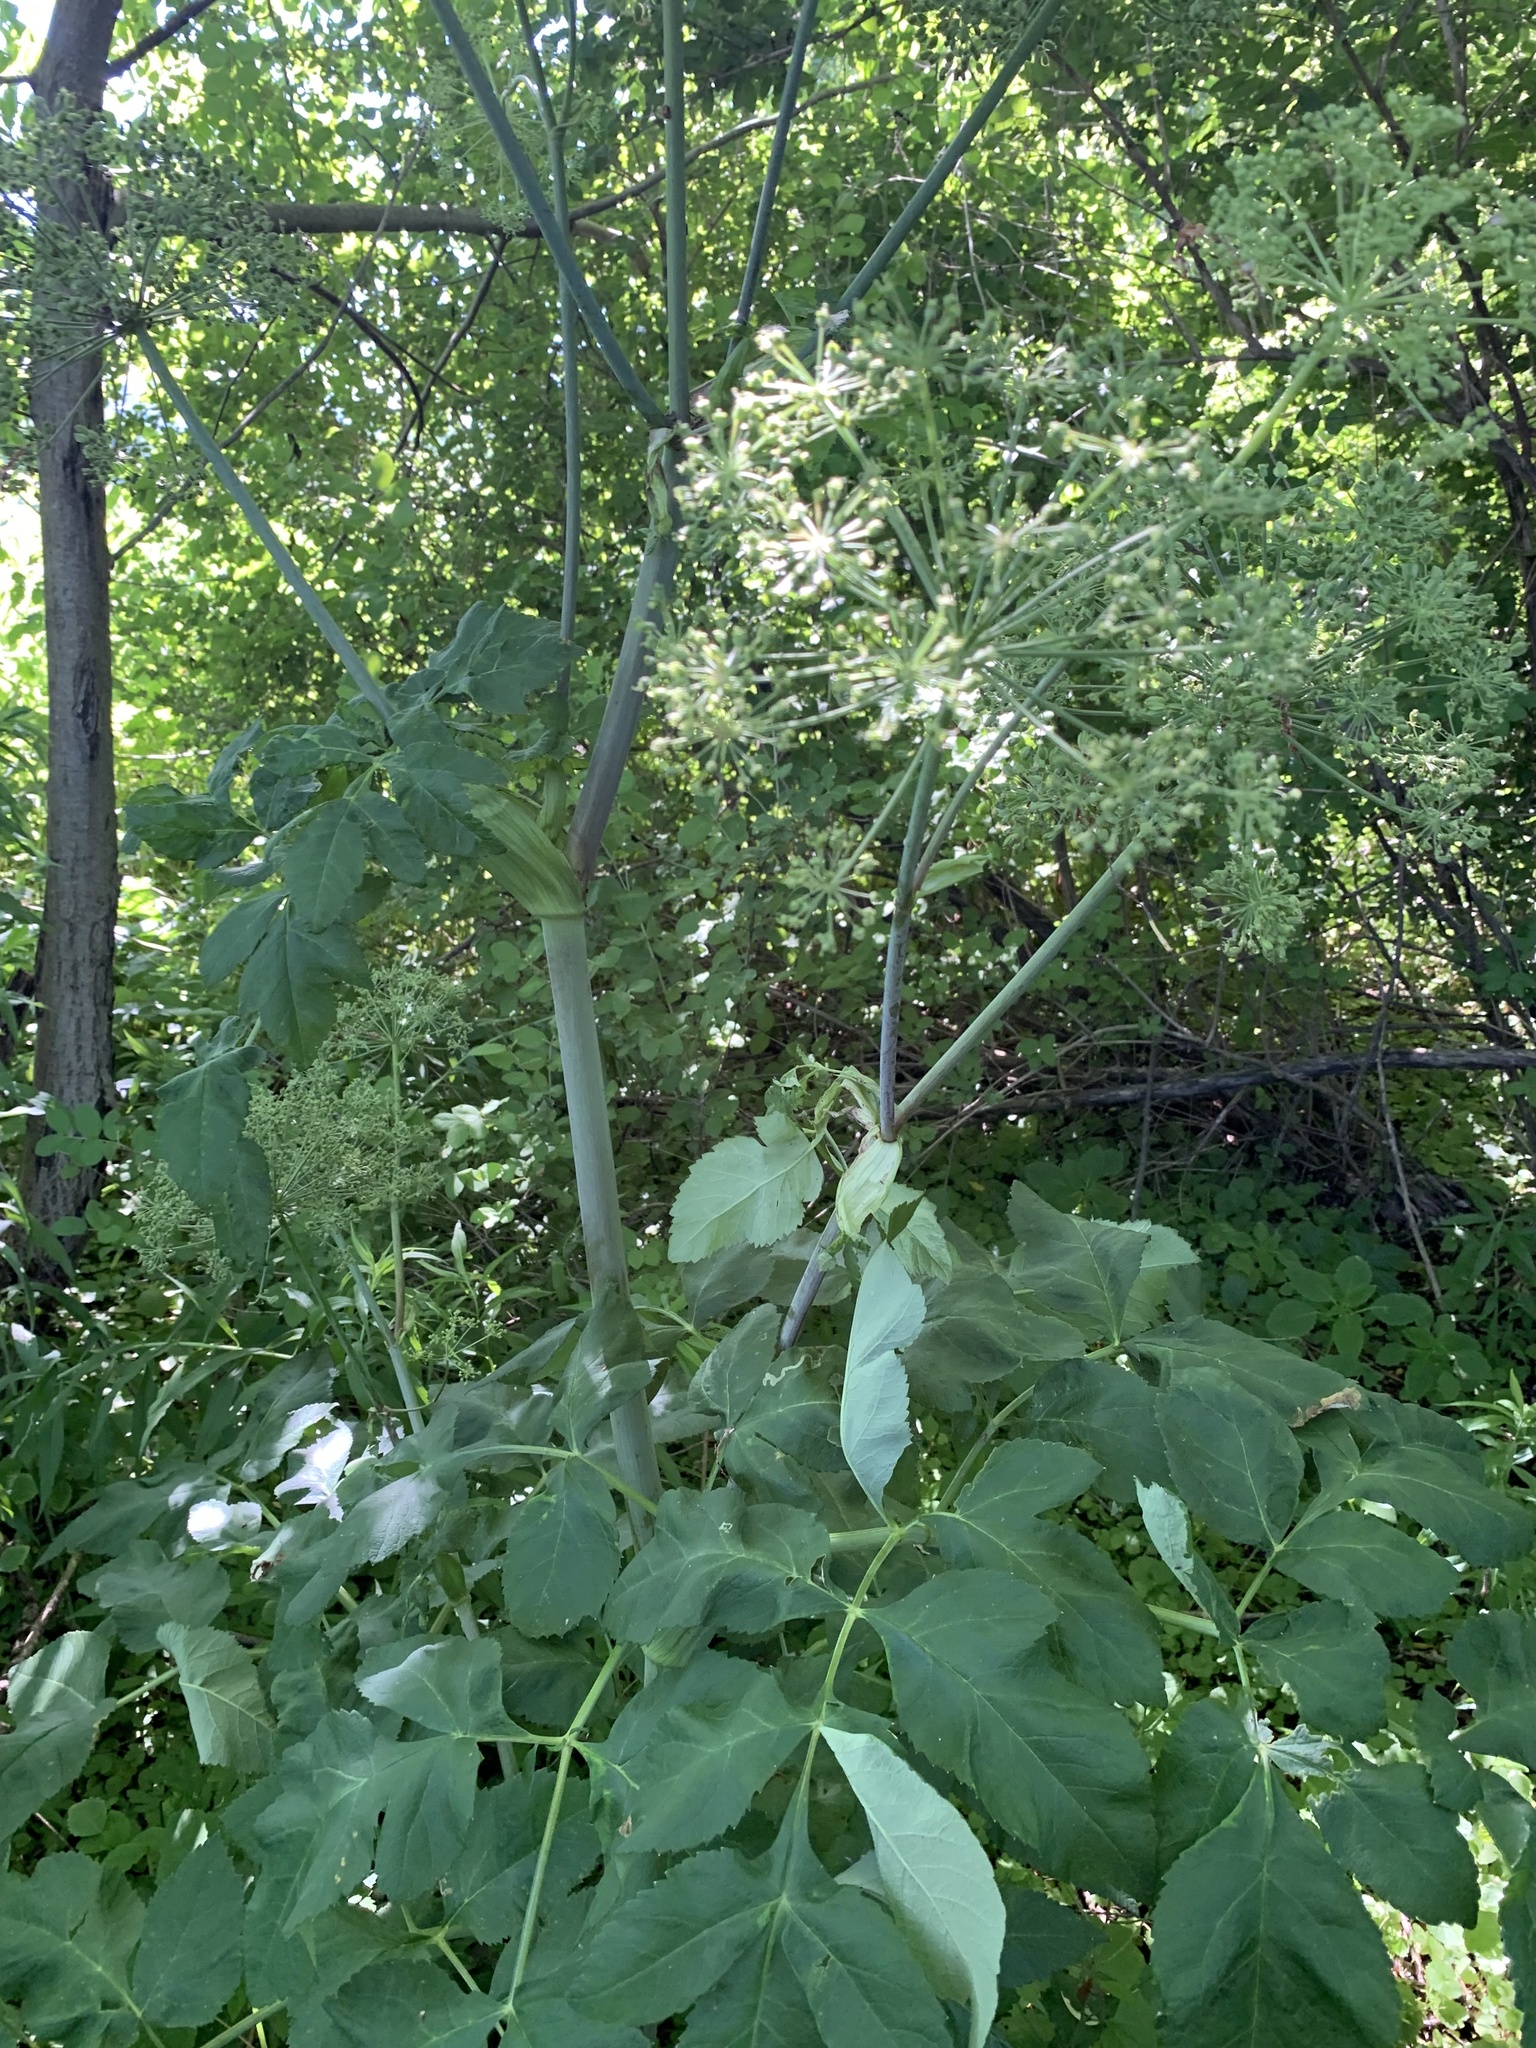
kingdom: Plantae
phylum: Tracheophyta
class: Magnoliopsida
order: Apiales
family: Apiaceae
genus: Angelica
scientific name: Angelica atropurpurea
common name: Great angelica
